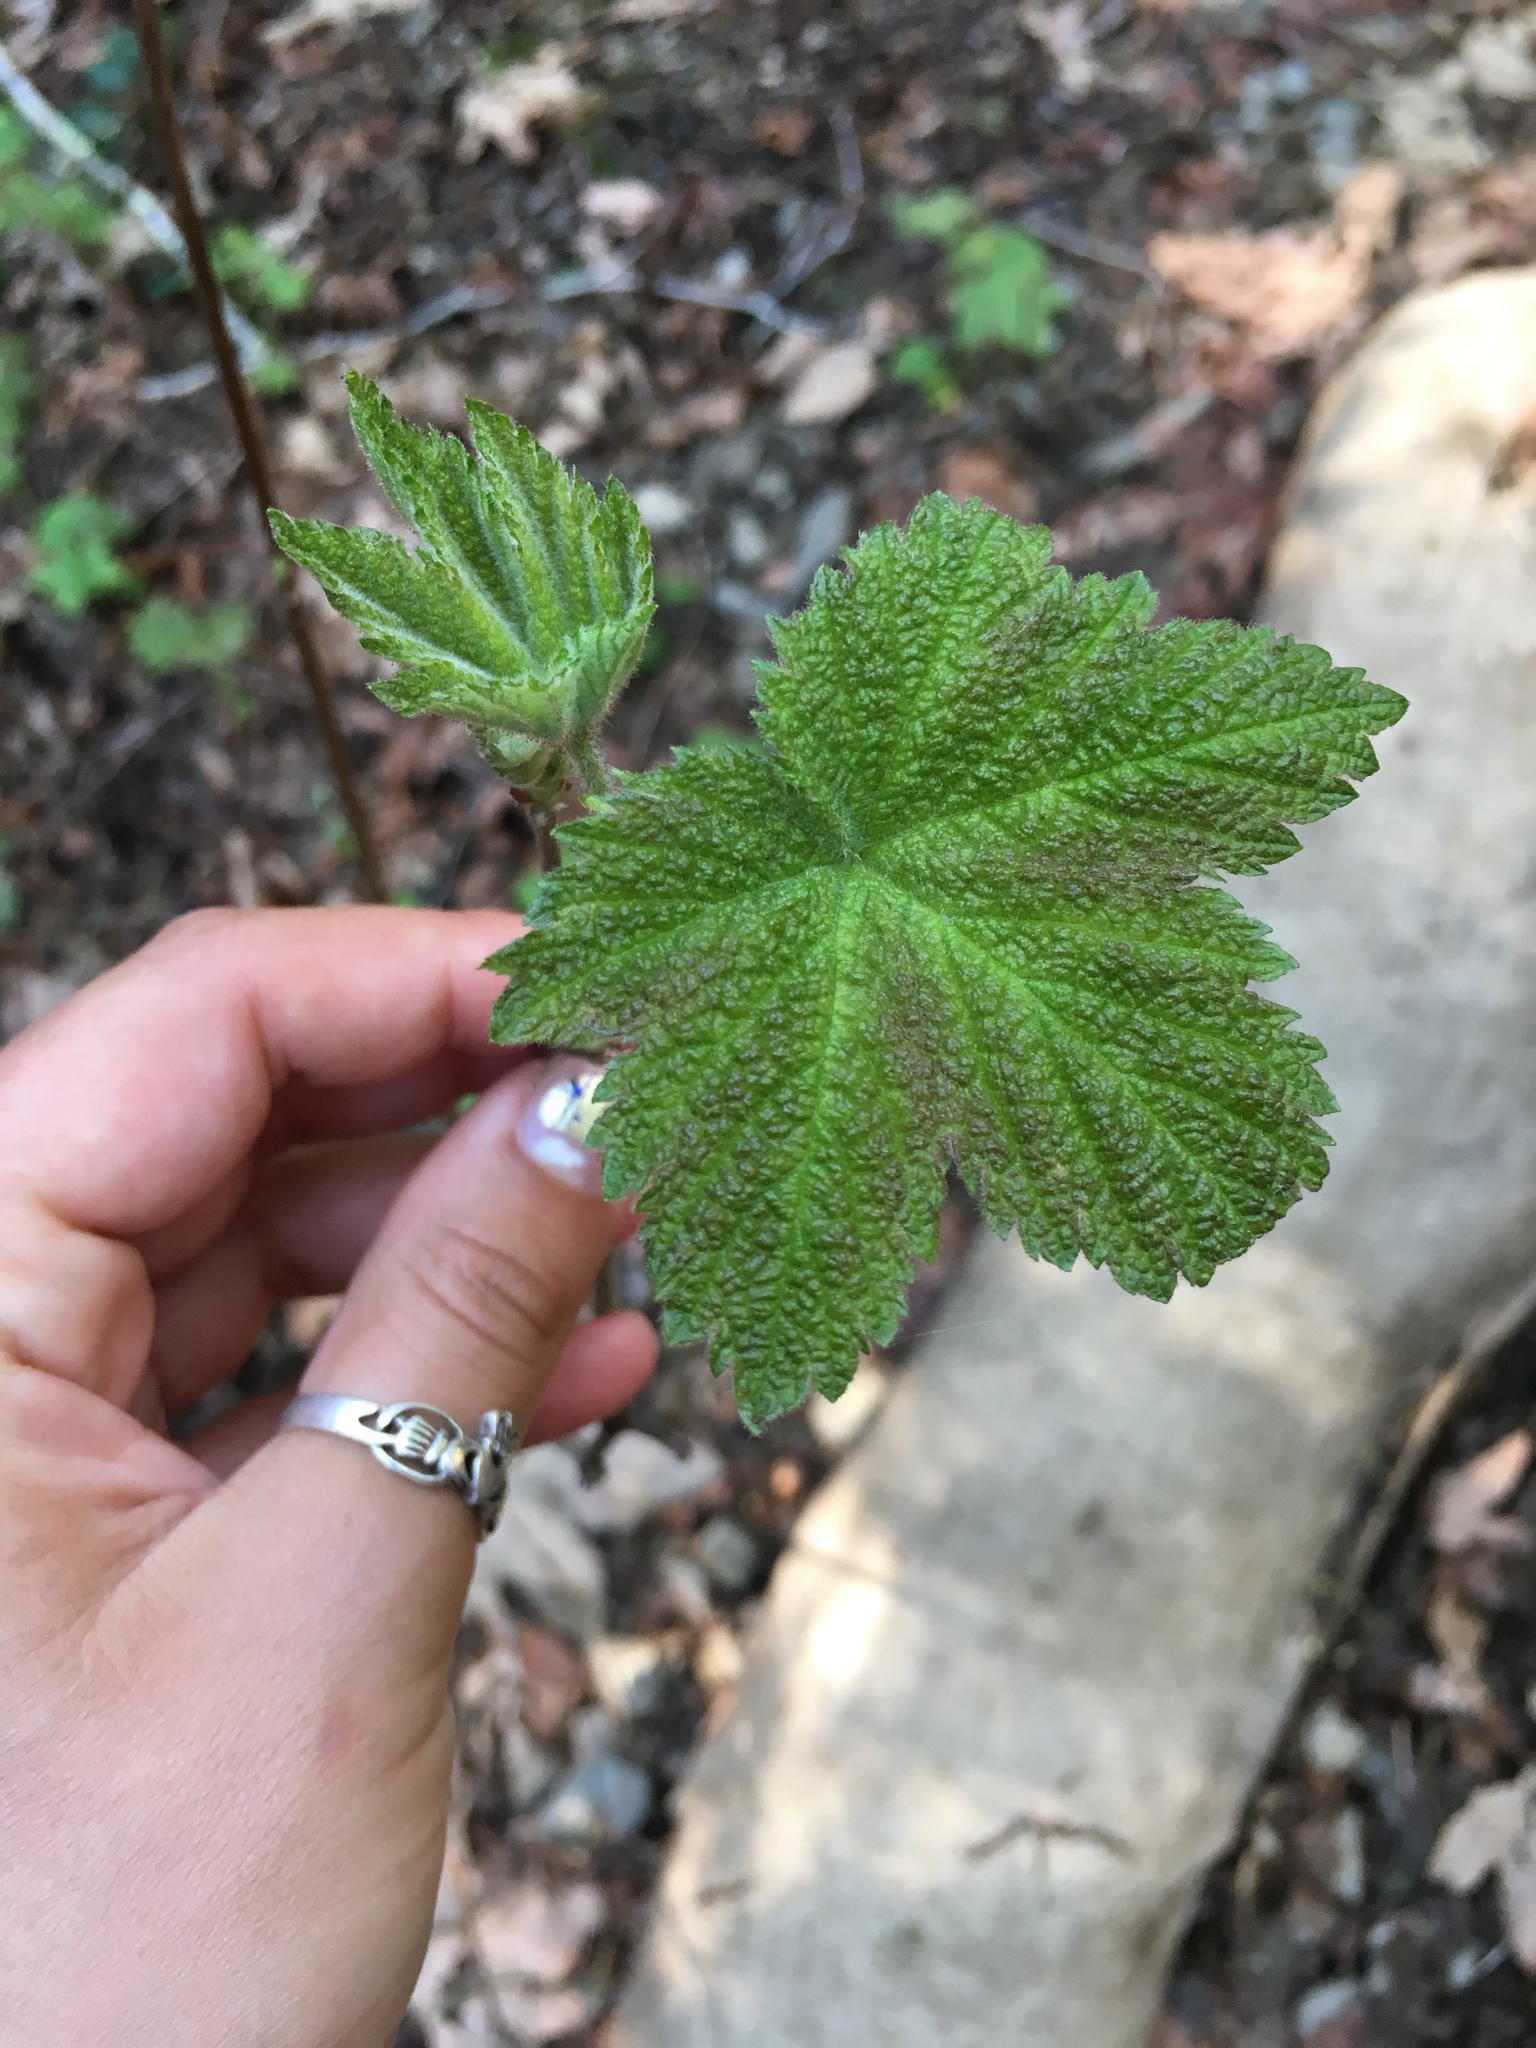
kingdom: Plantae
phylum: Tracheophyta
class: Magnoliopsida
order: Rosales
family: Rosaceae
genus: Rubus
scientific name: Rubus parviflorus
